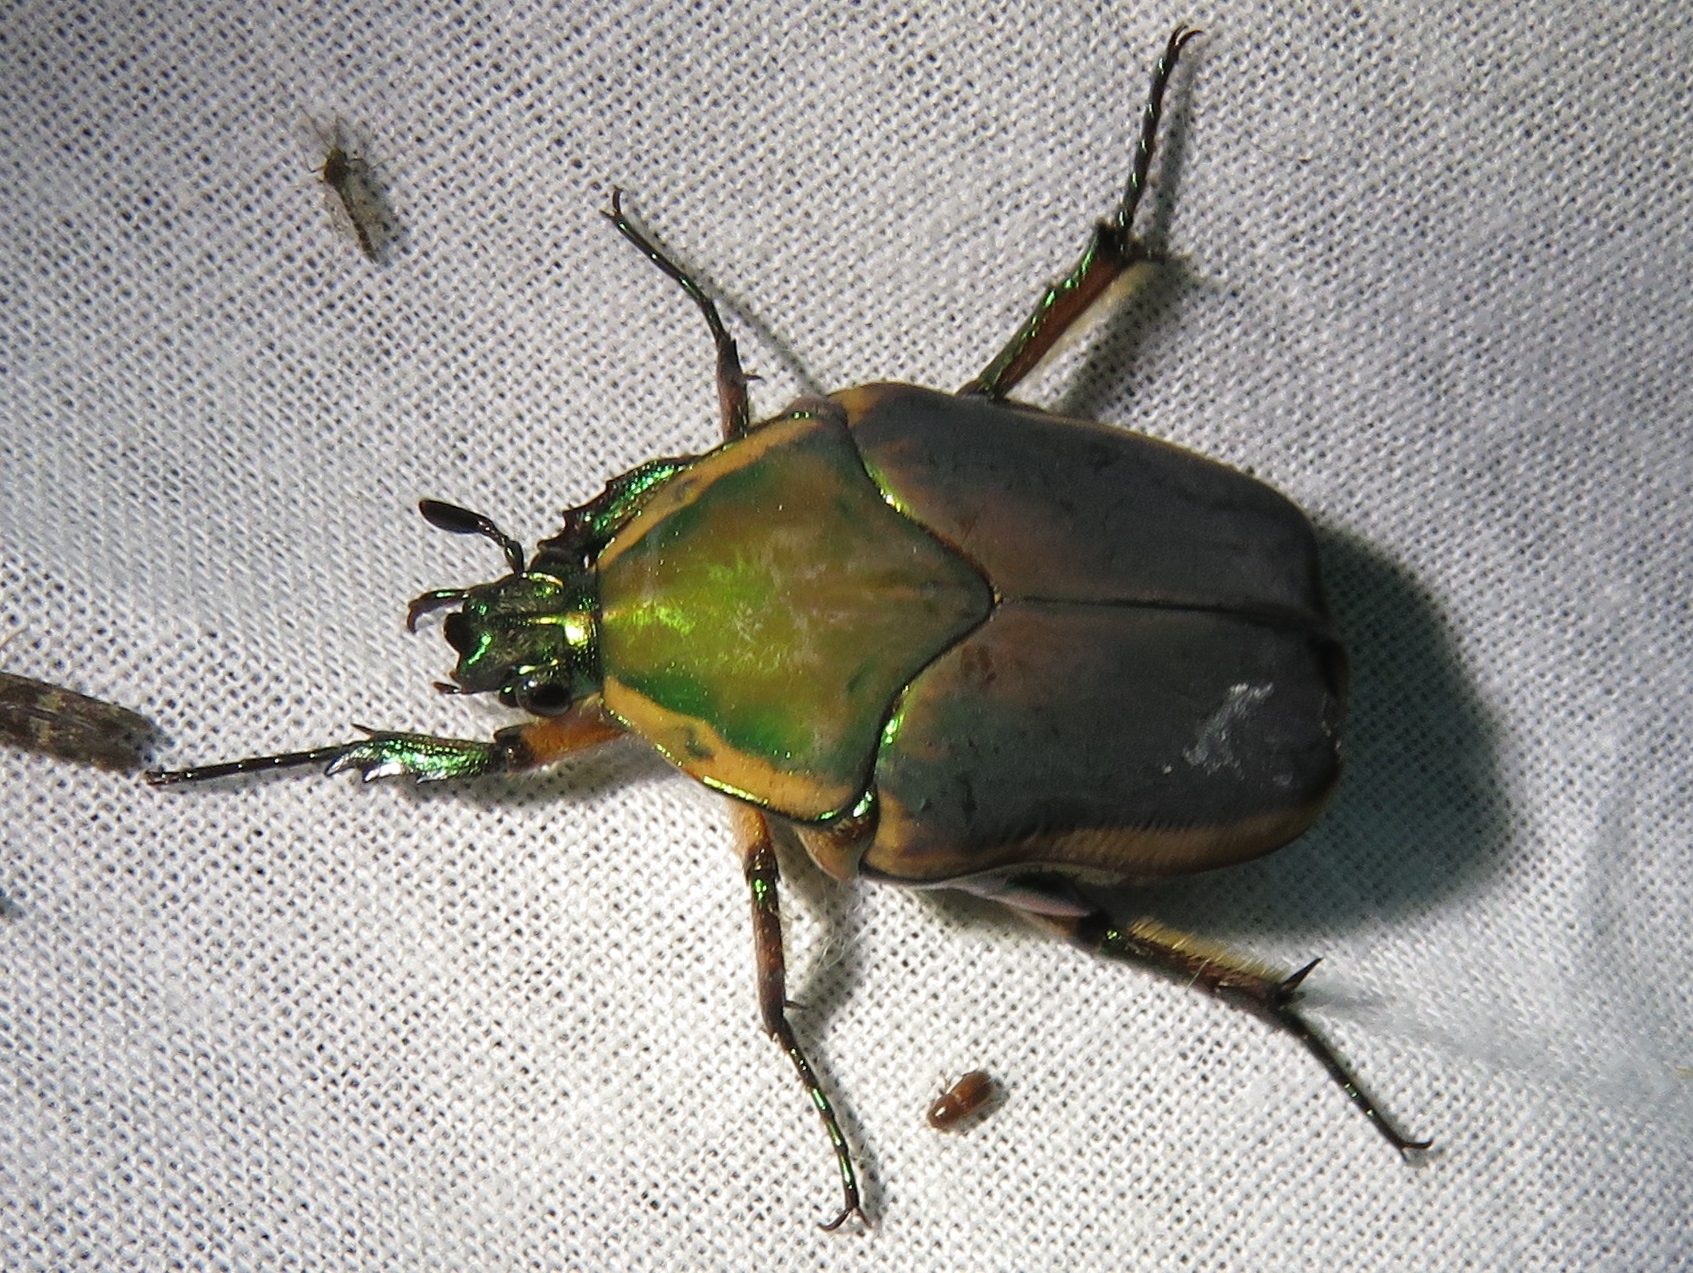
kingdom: Animalia
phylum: Arthropoda
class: Insecta
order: Coleoptera
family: Scarabaeidae
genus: Cotinis
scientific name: Cotinis nitida
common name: Common green june beetle
